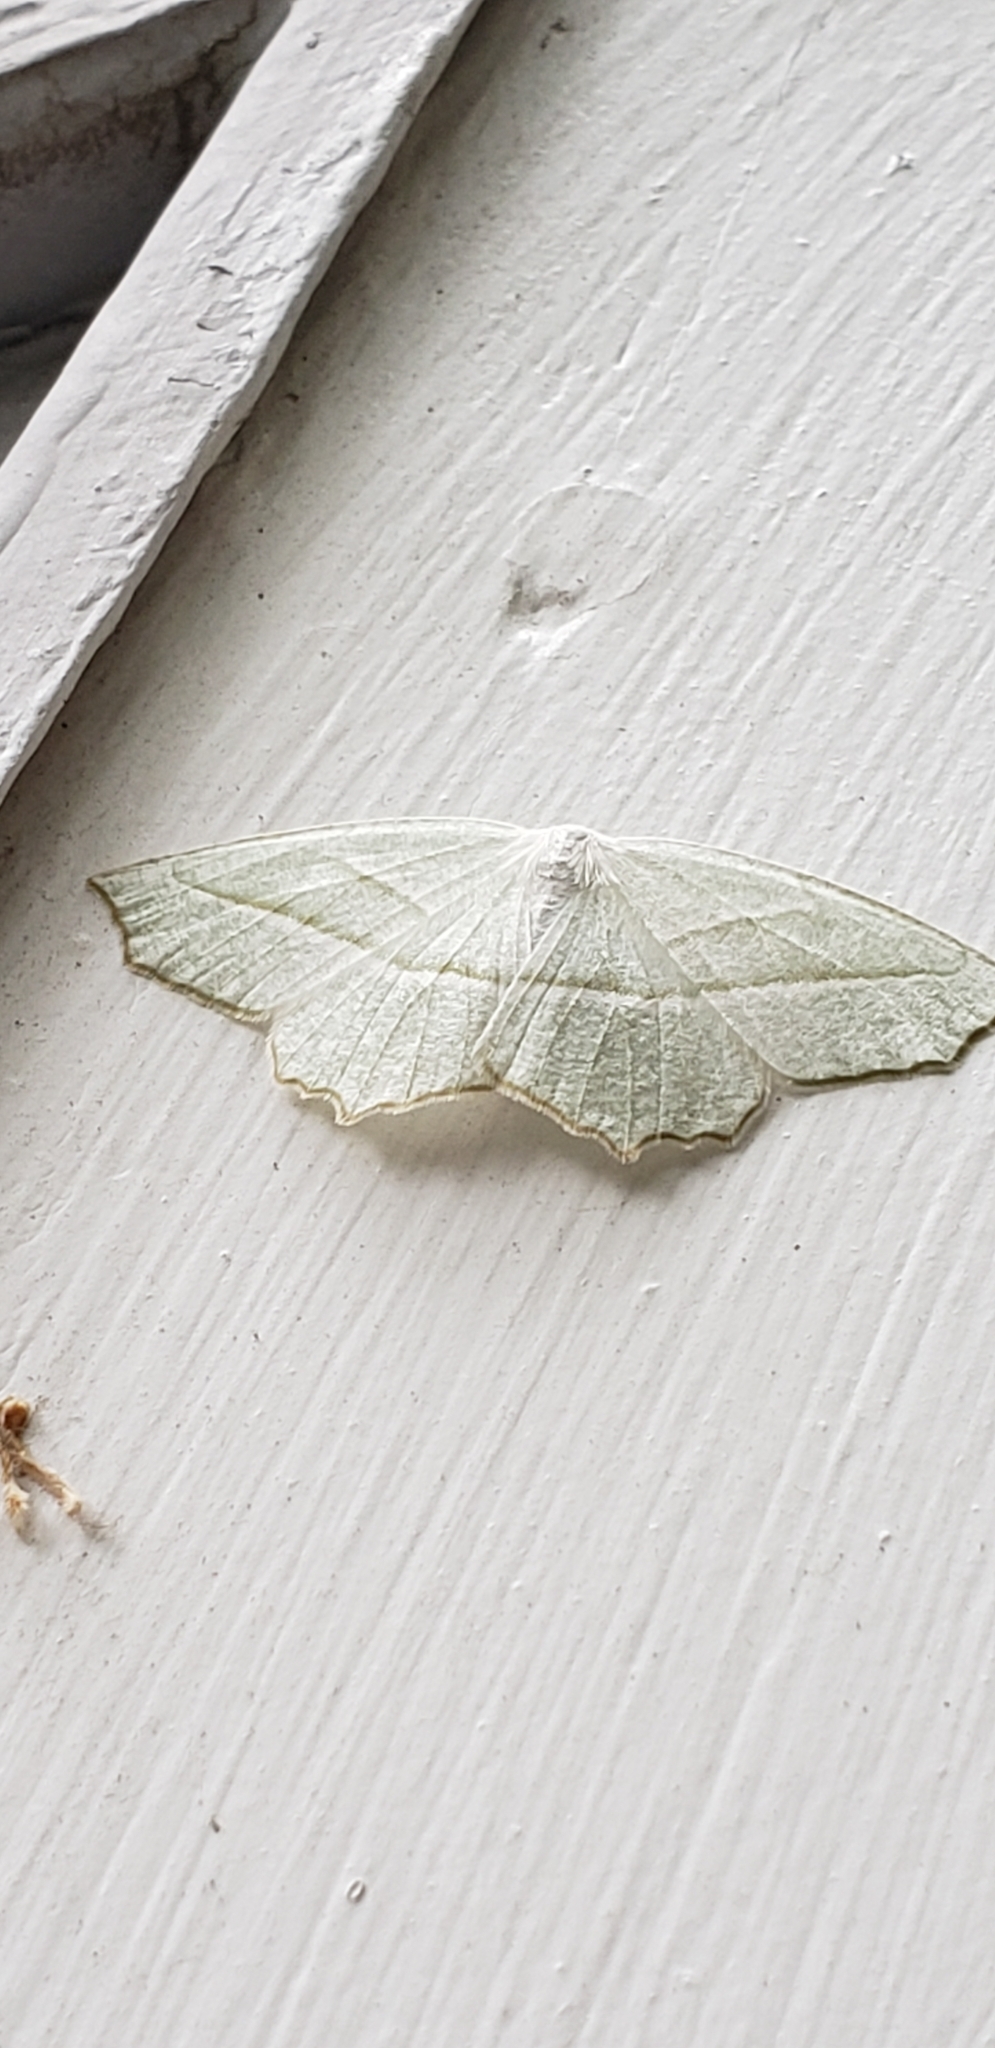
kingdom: Animalia
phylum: Arthropoda
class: Insecta
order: Lepidoptera
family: Geometridae
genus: Campaea
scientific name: Campaea perlata
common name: Fringed looper
